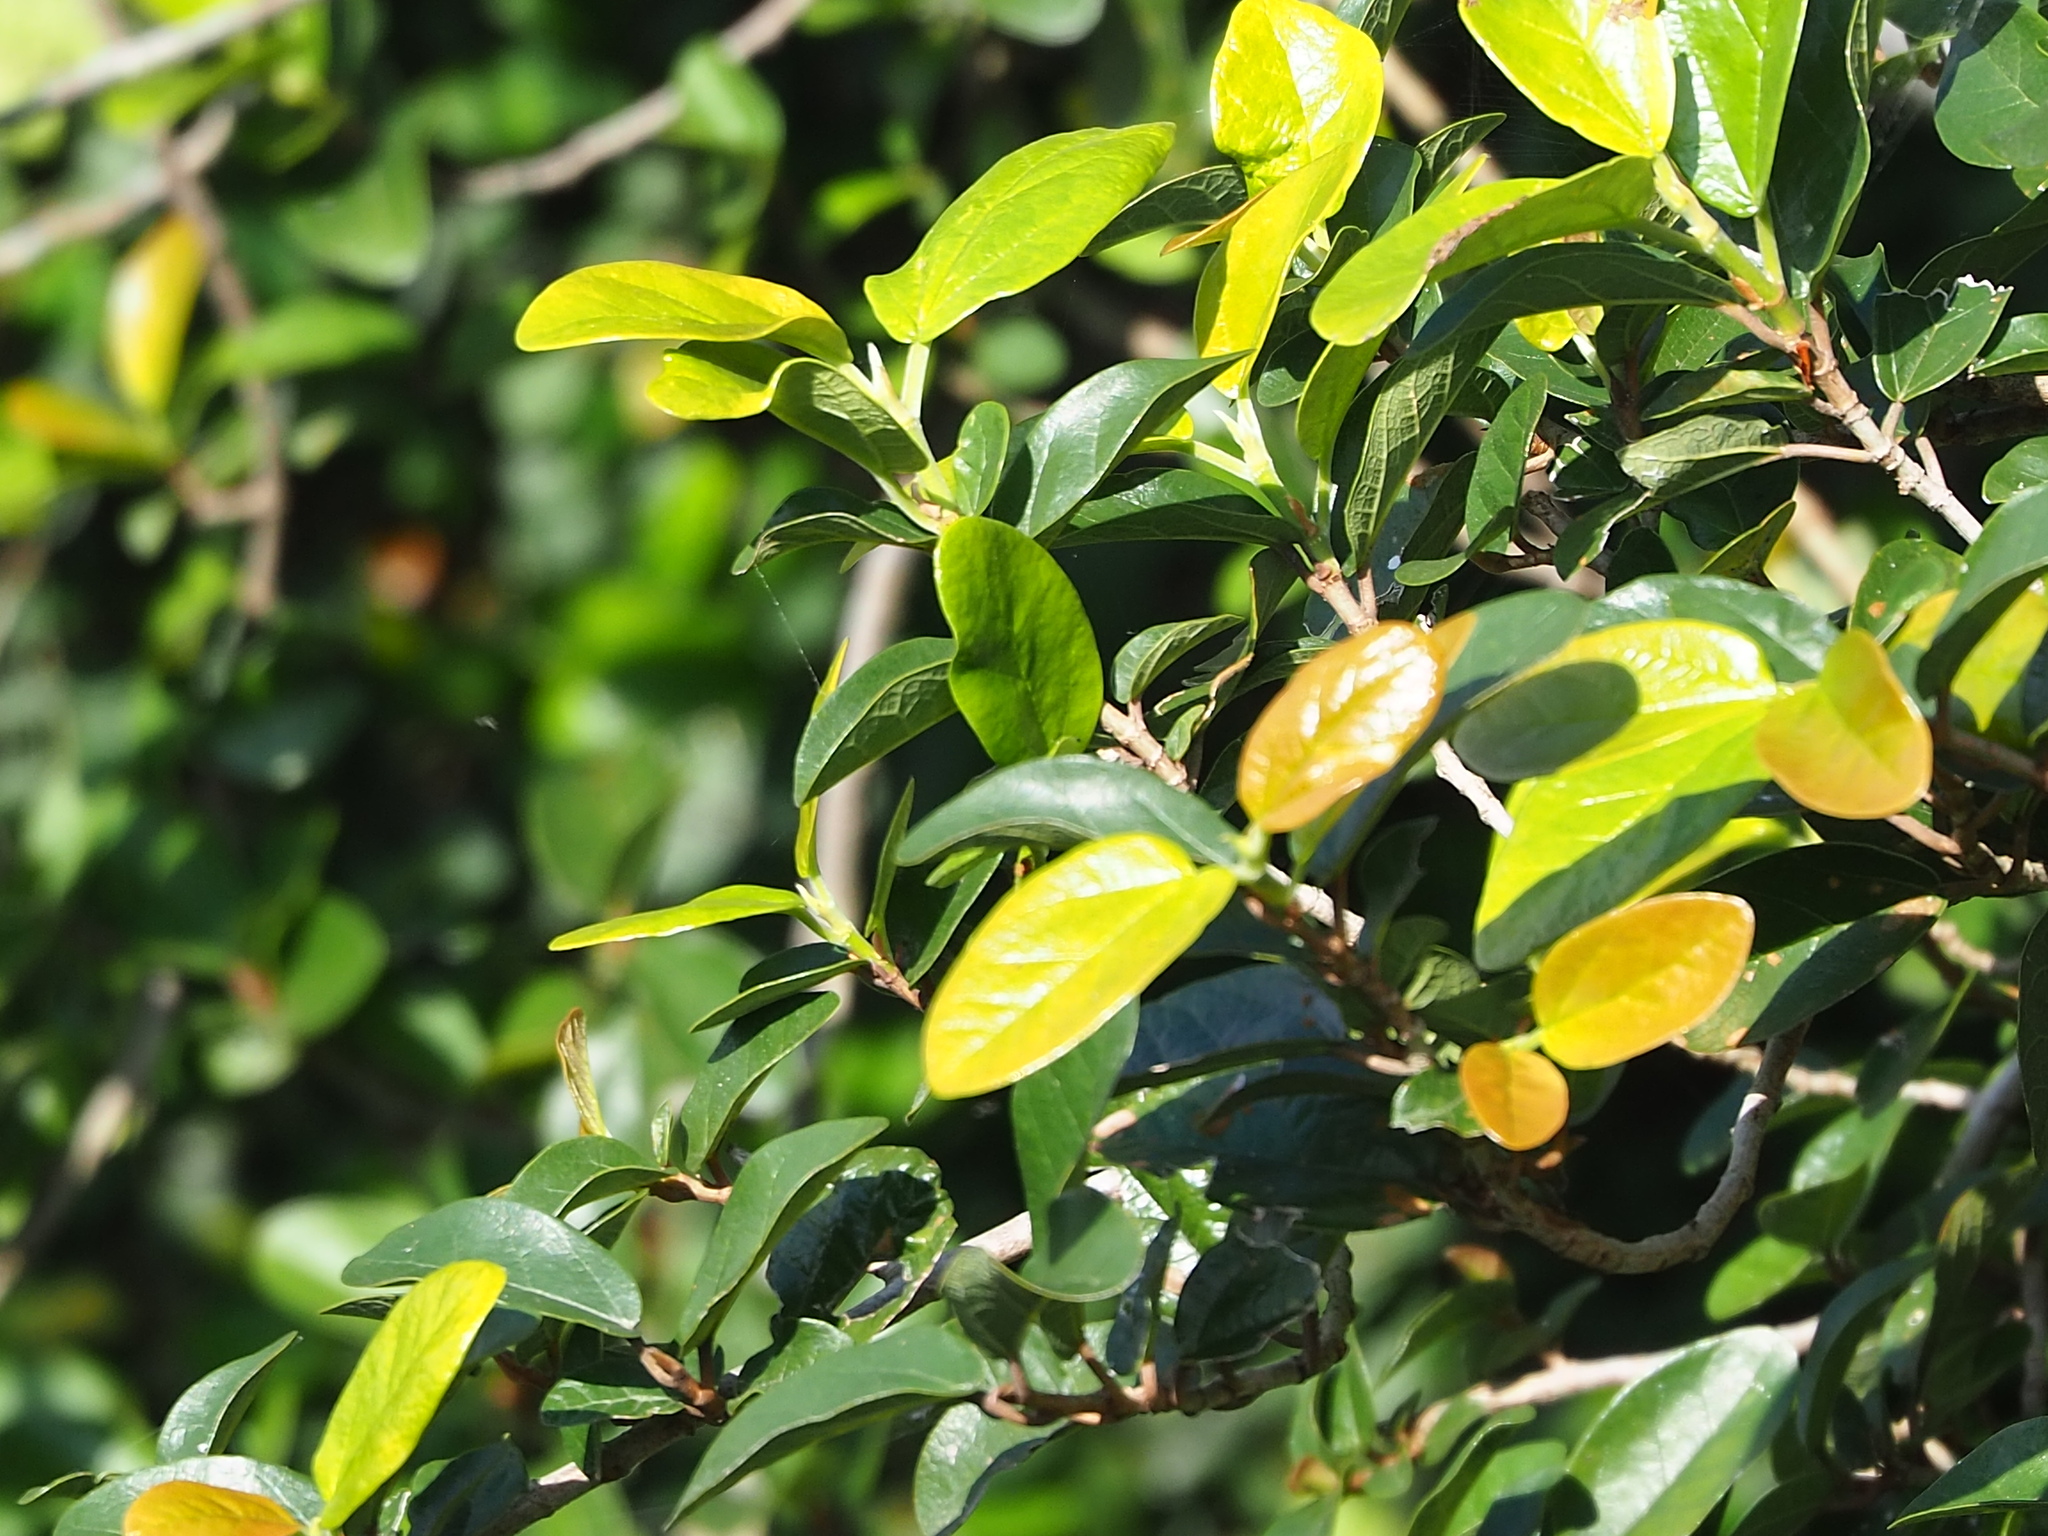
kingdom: Plantae
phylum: Tracheophyta
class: Magnoliopsida
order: Rosales
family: Moraceae
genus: Ficus
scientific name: Ficus pumila
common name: Climbingfig
